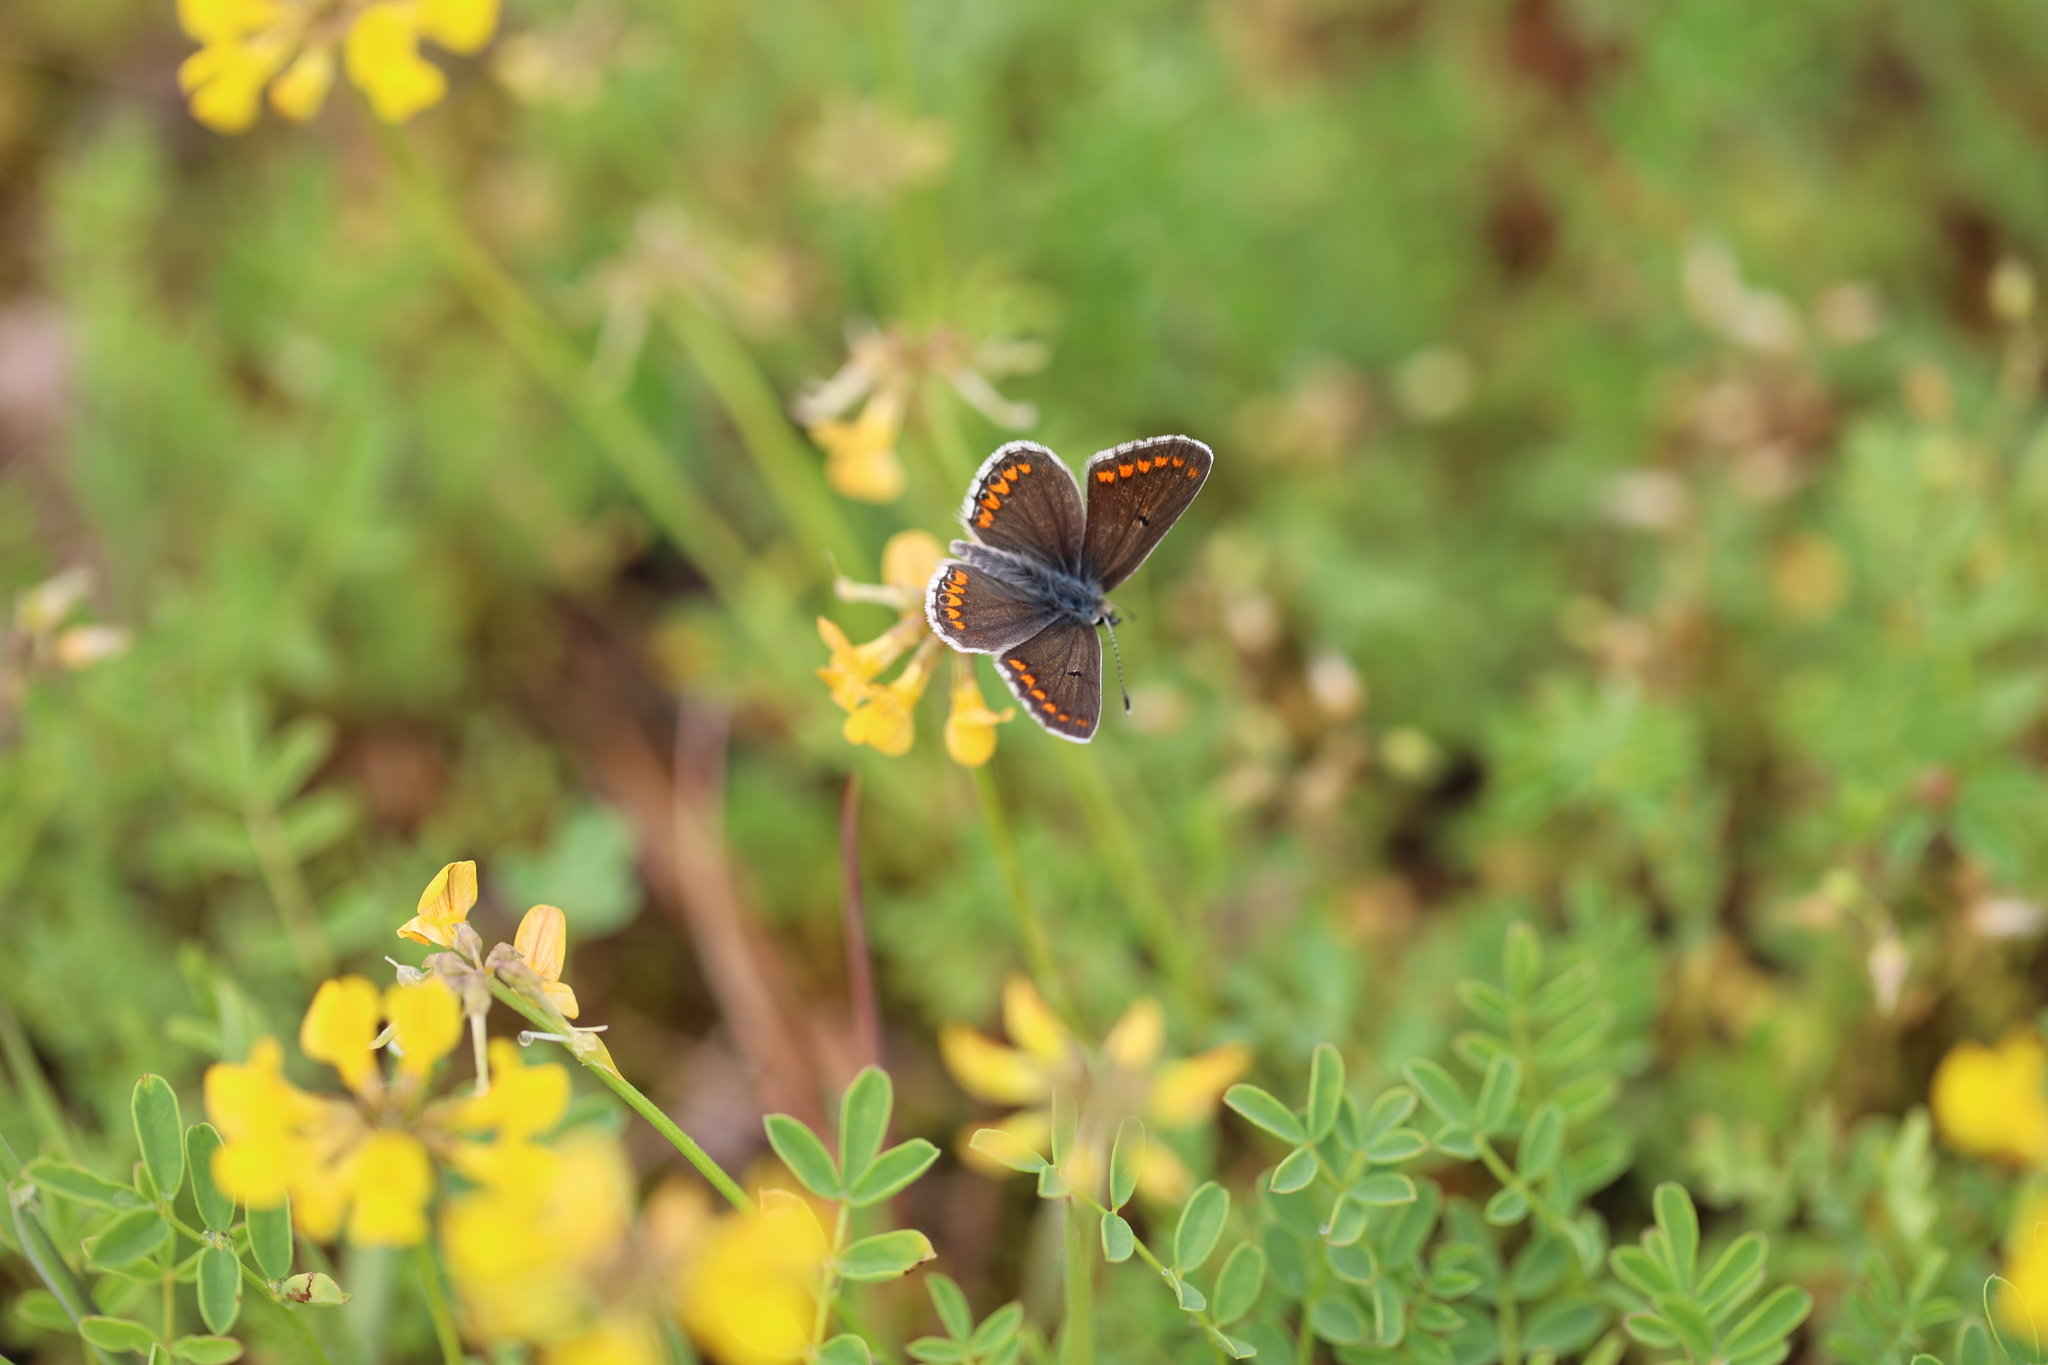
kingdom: Animalia
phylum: Arthropoda
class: Insecta
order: Lepidoptera
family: Lycaenidae
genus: Aricia
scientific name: Aricia agestis
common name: Brown argus
